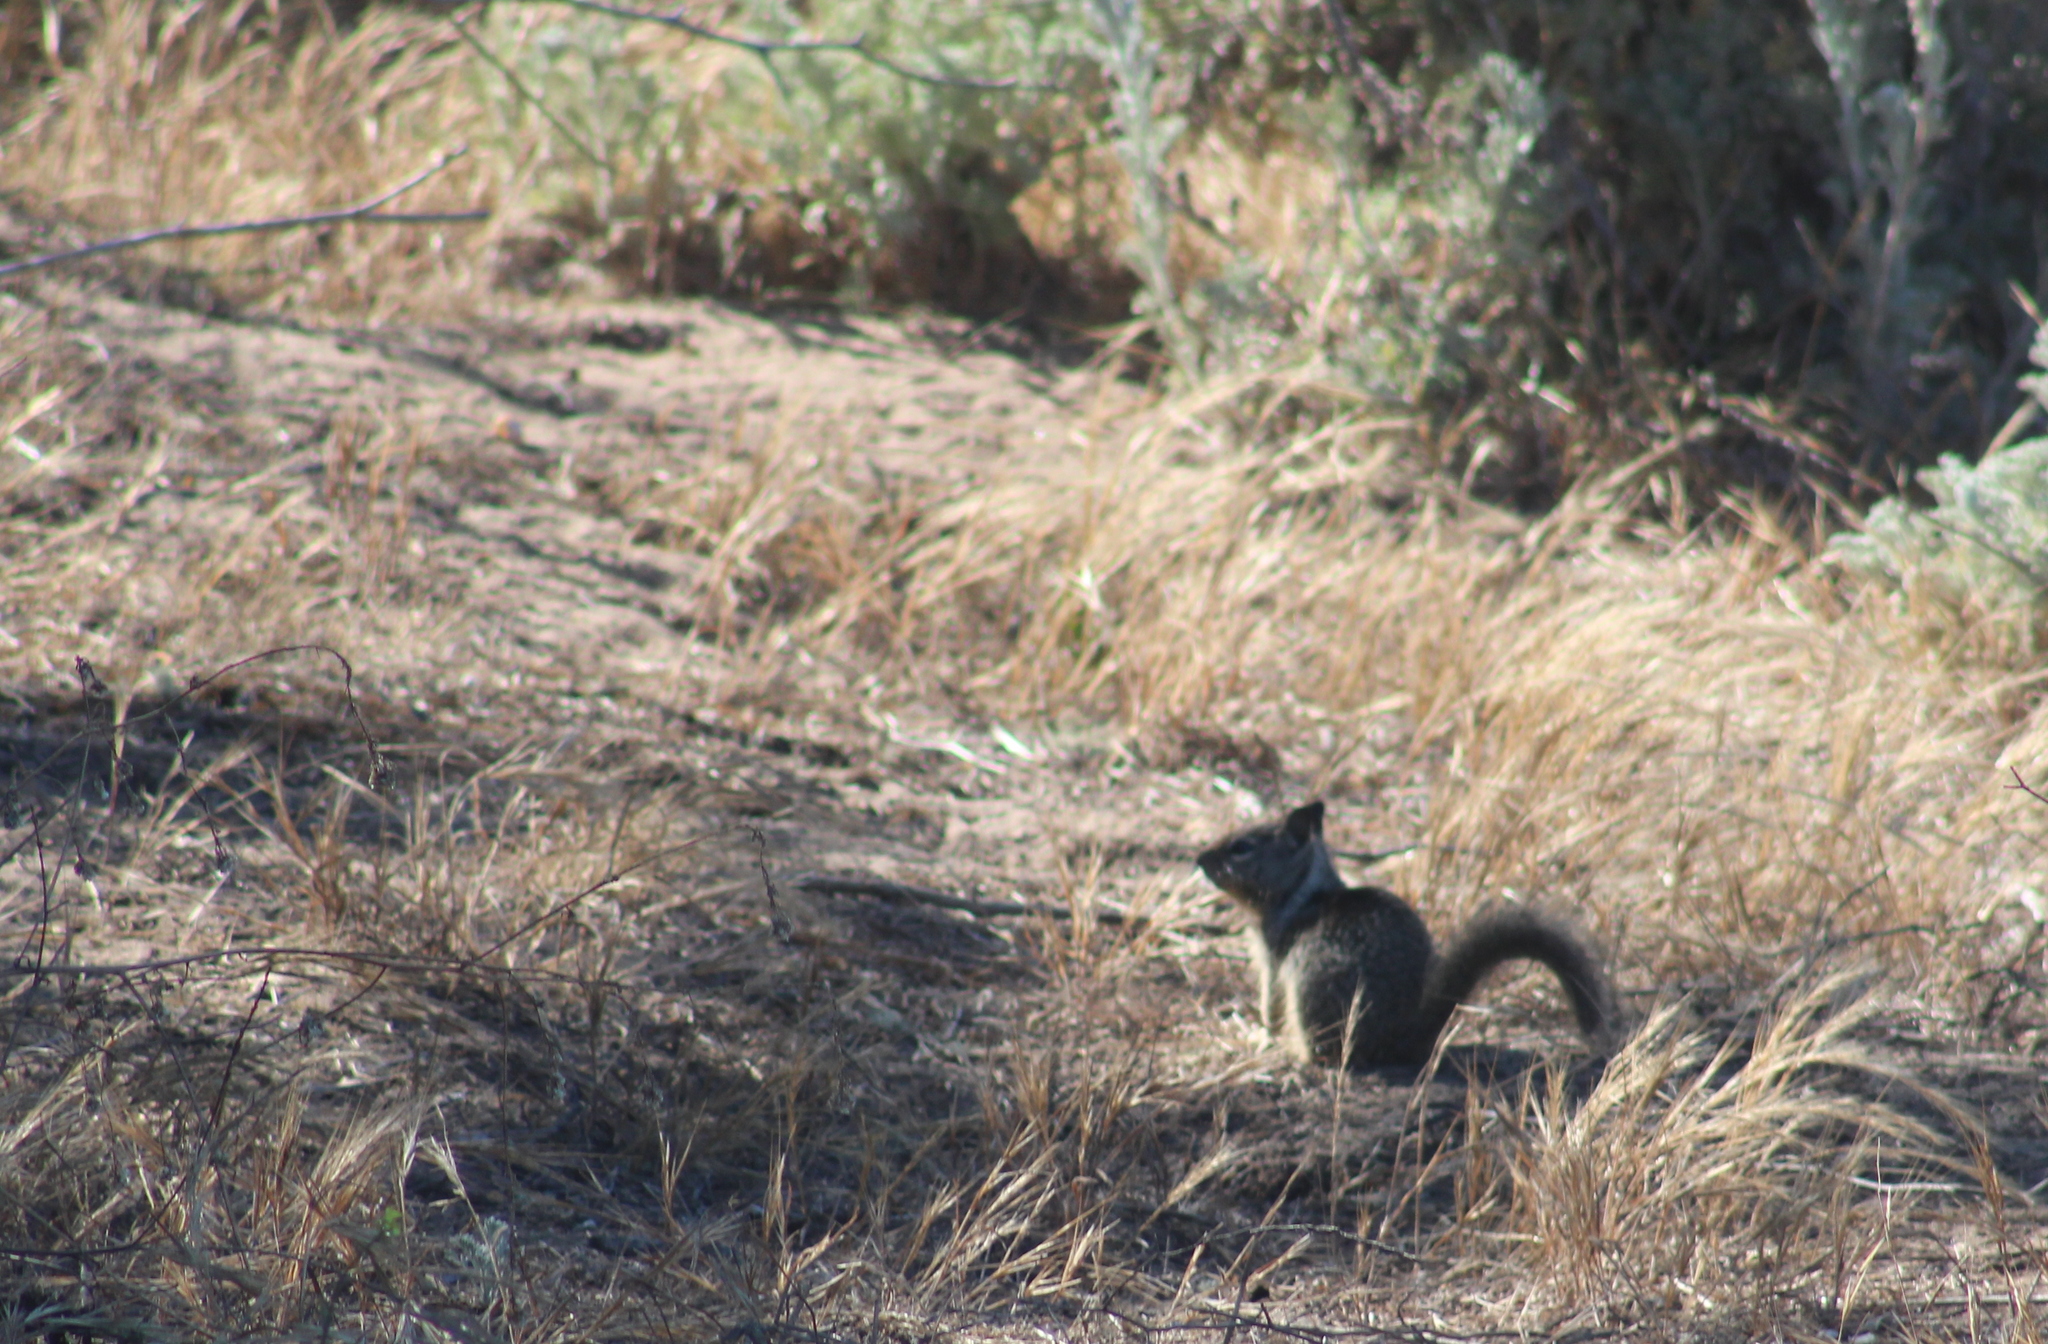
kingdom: Animalia
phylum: Chordata
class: Mammalia
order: Rodentia
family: Sciuridae
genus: Otospermophilus
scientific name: Otospermophilus beecheyi
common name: California ground squirrel
